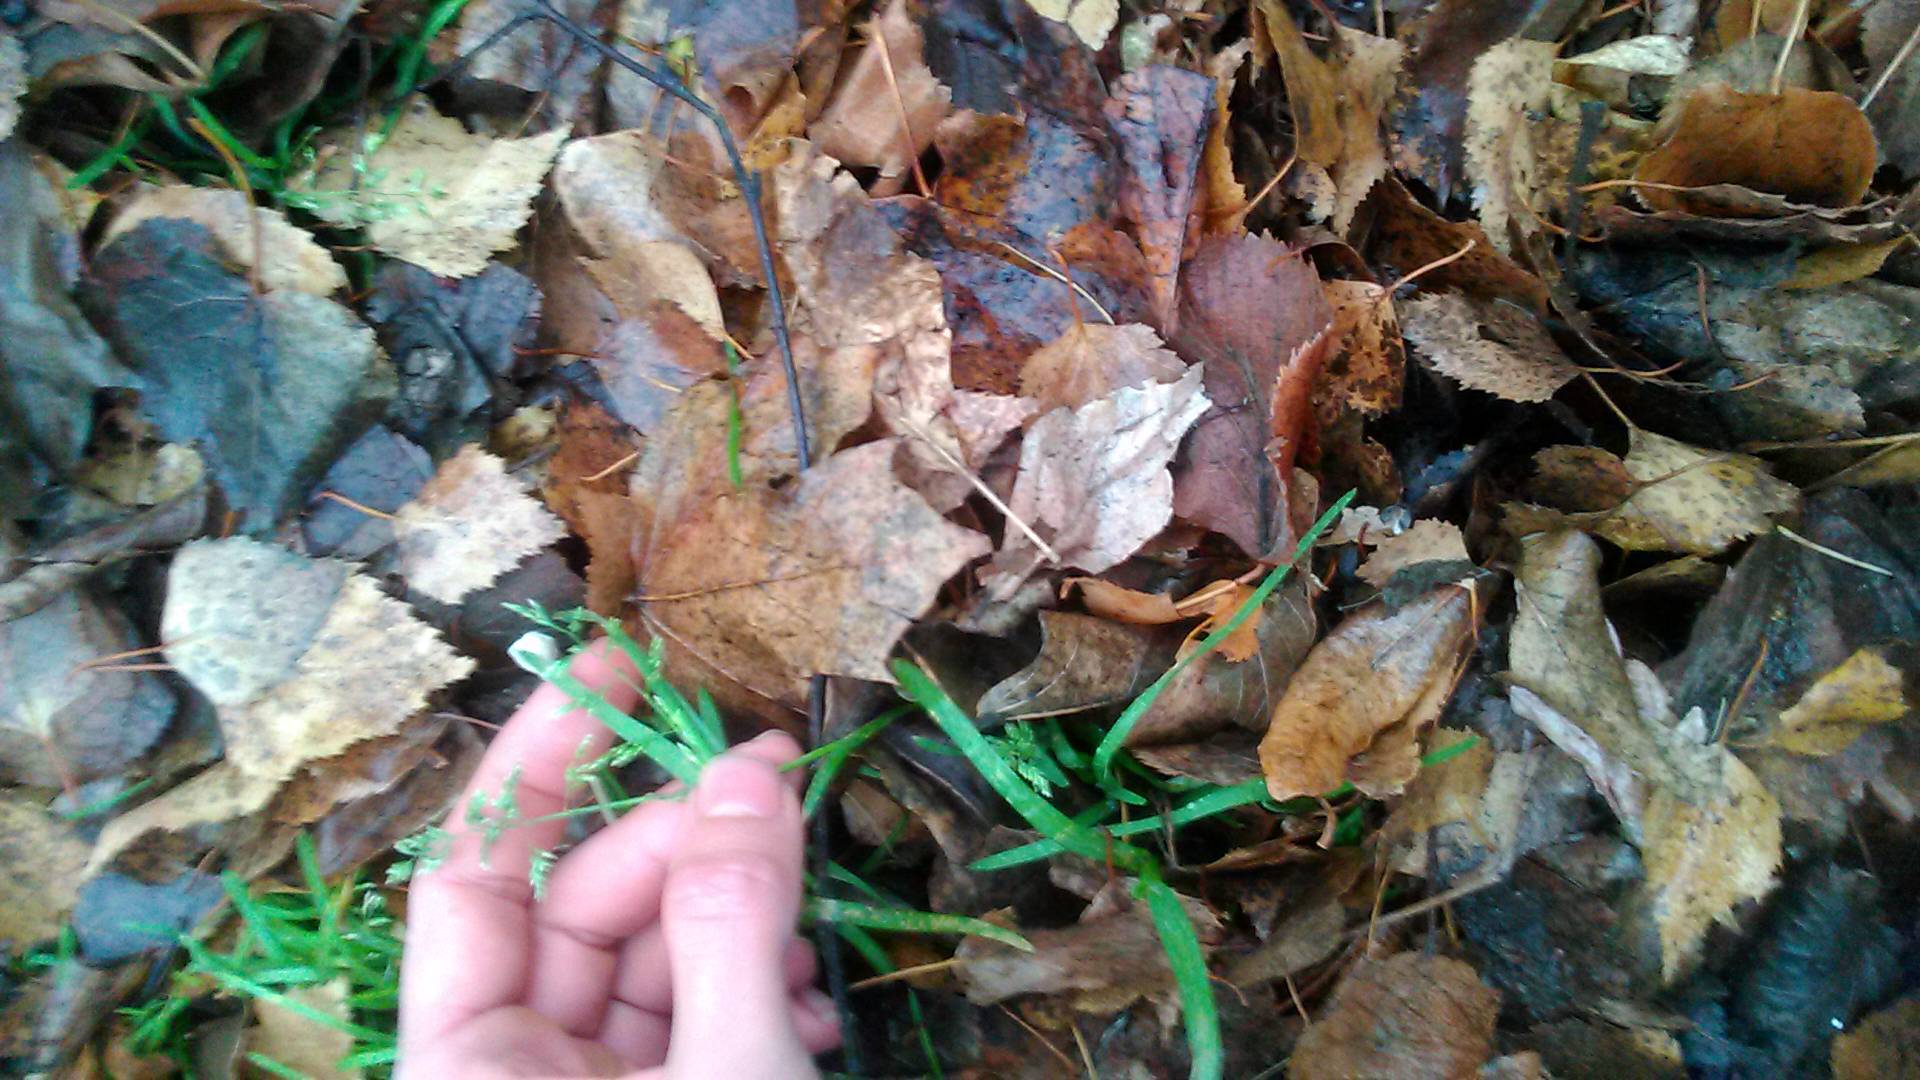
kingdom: Plantae
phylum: Tracheophyta
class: Liliopsida
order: Poales
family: Poaceae
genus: Poa
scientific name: Poa annua
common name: Annual bluegrass
